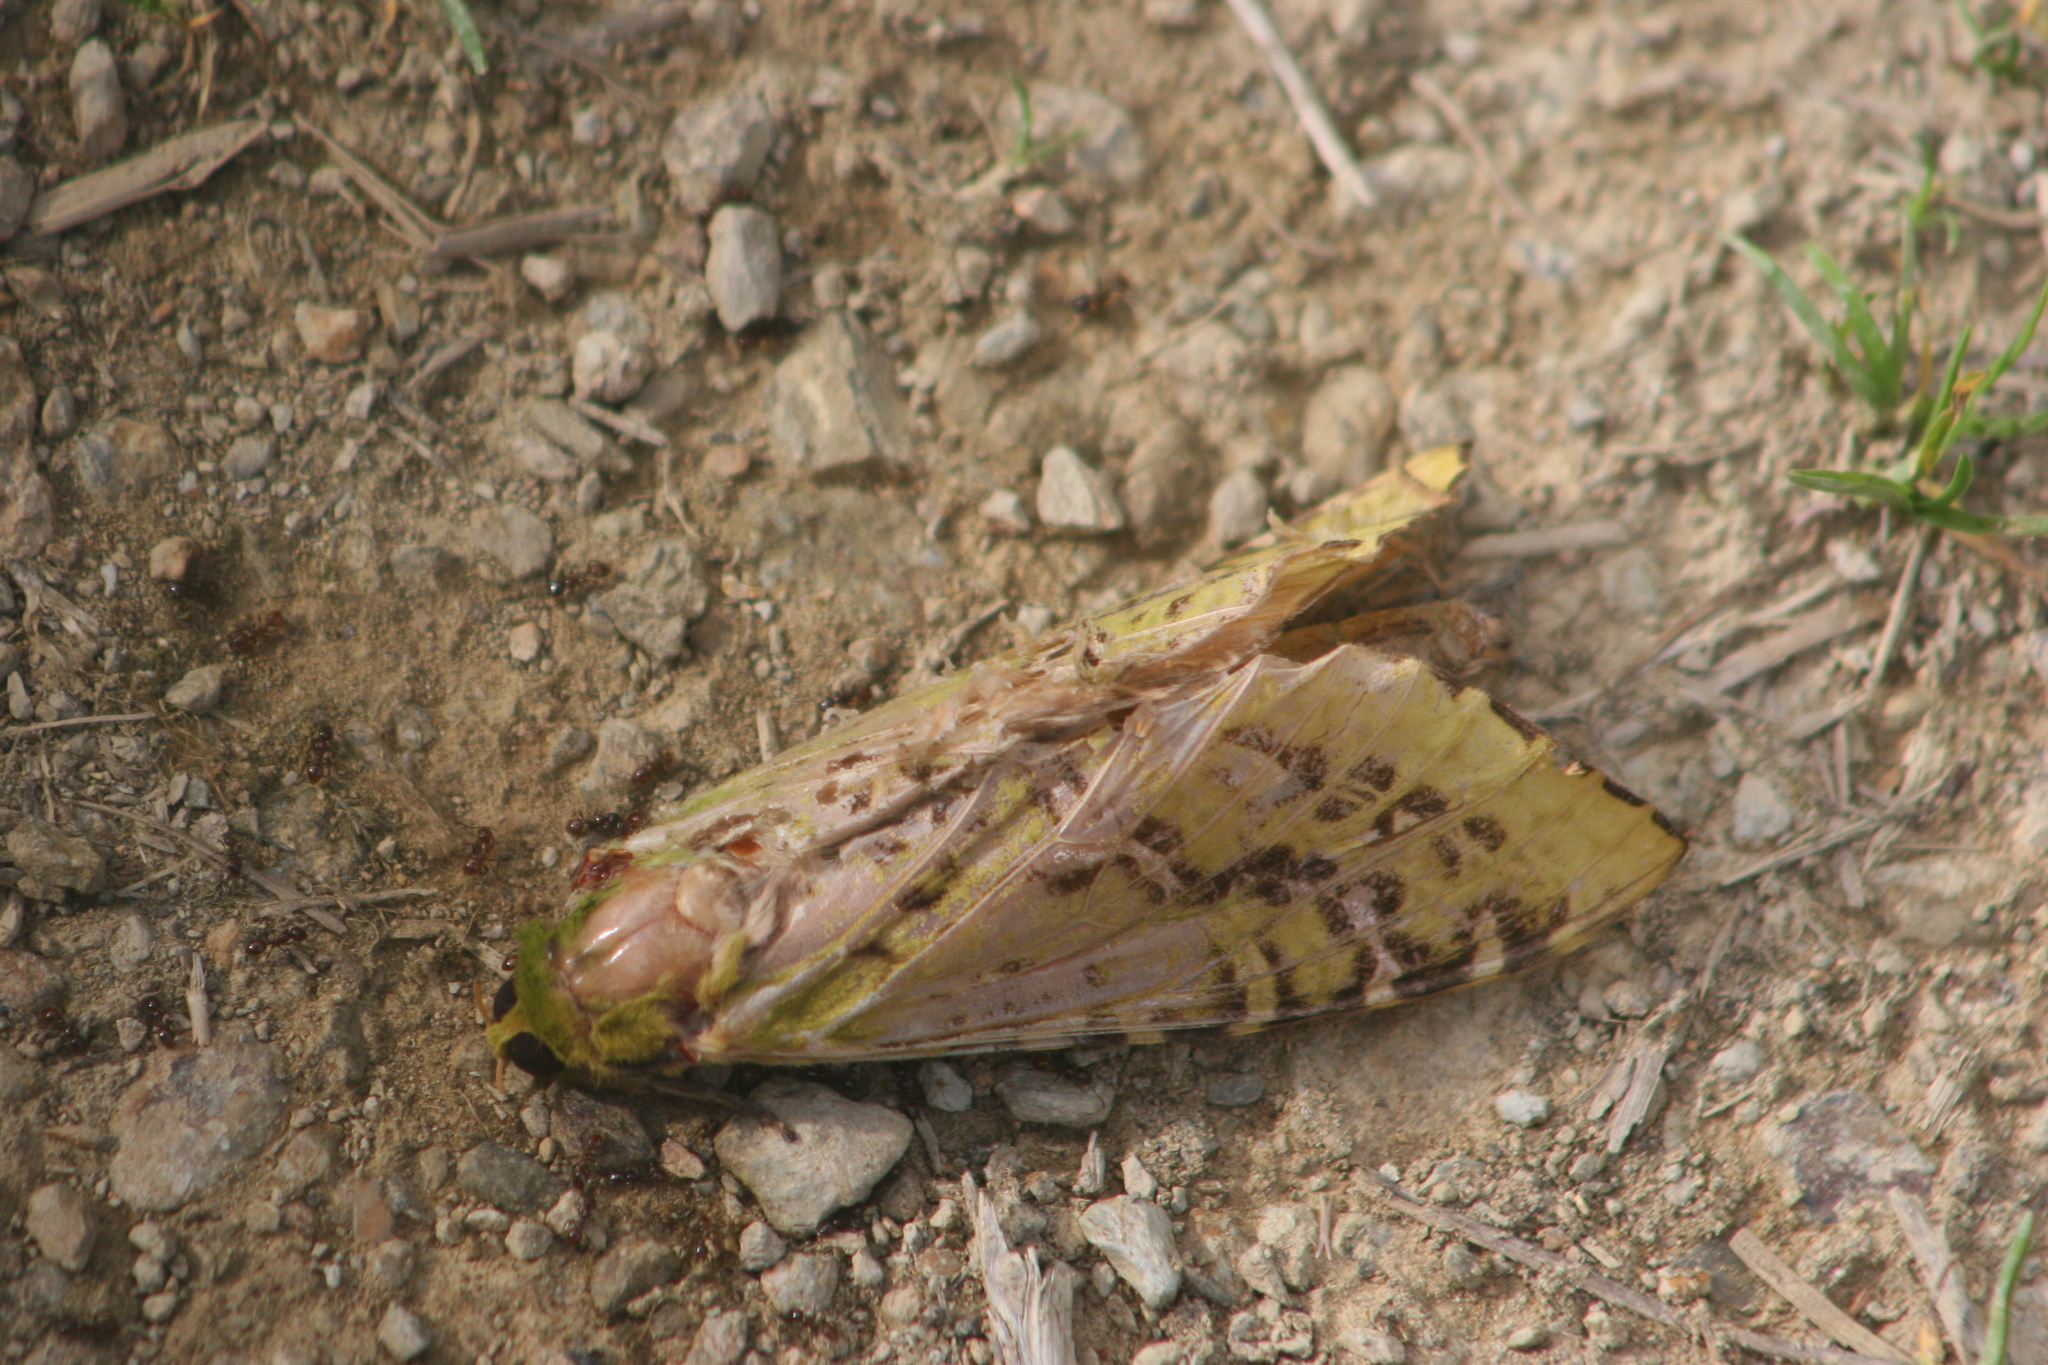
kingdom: Animalia
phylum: Arthropoda
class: Insecta
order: Lepidoptera
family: Hepialidae
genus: Aenetus
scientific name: Aenetus virescens
